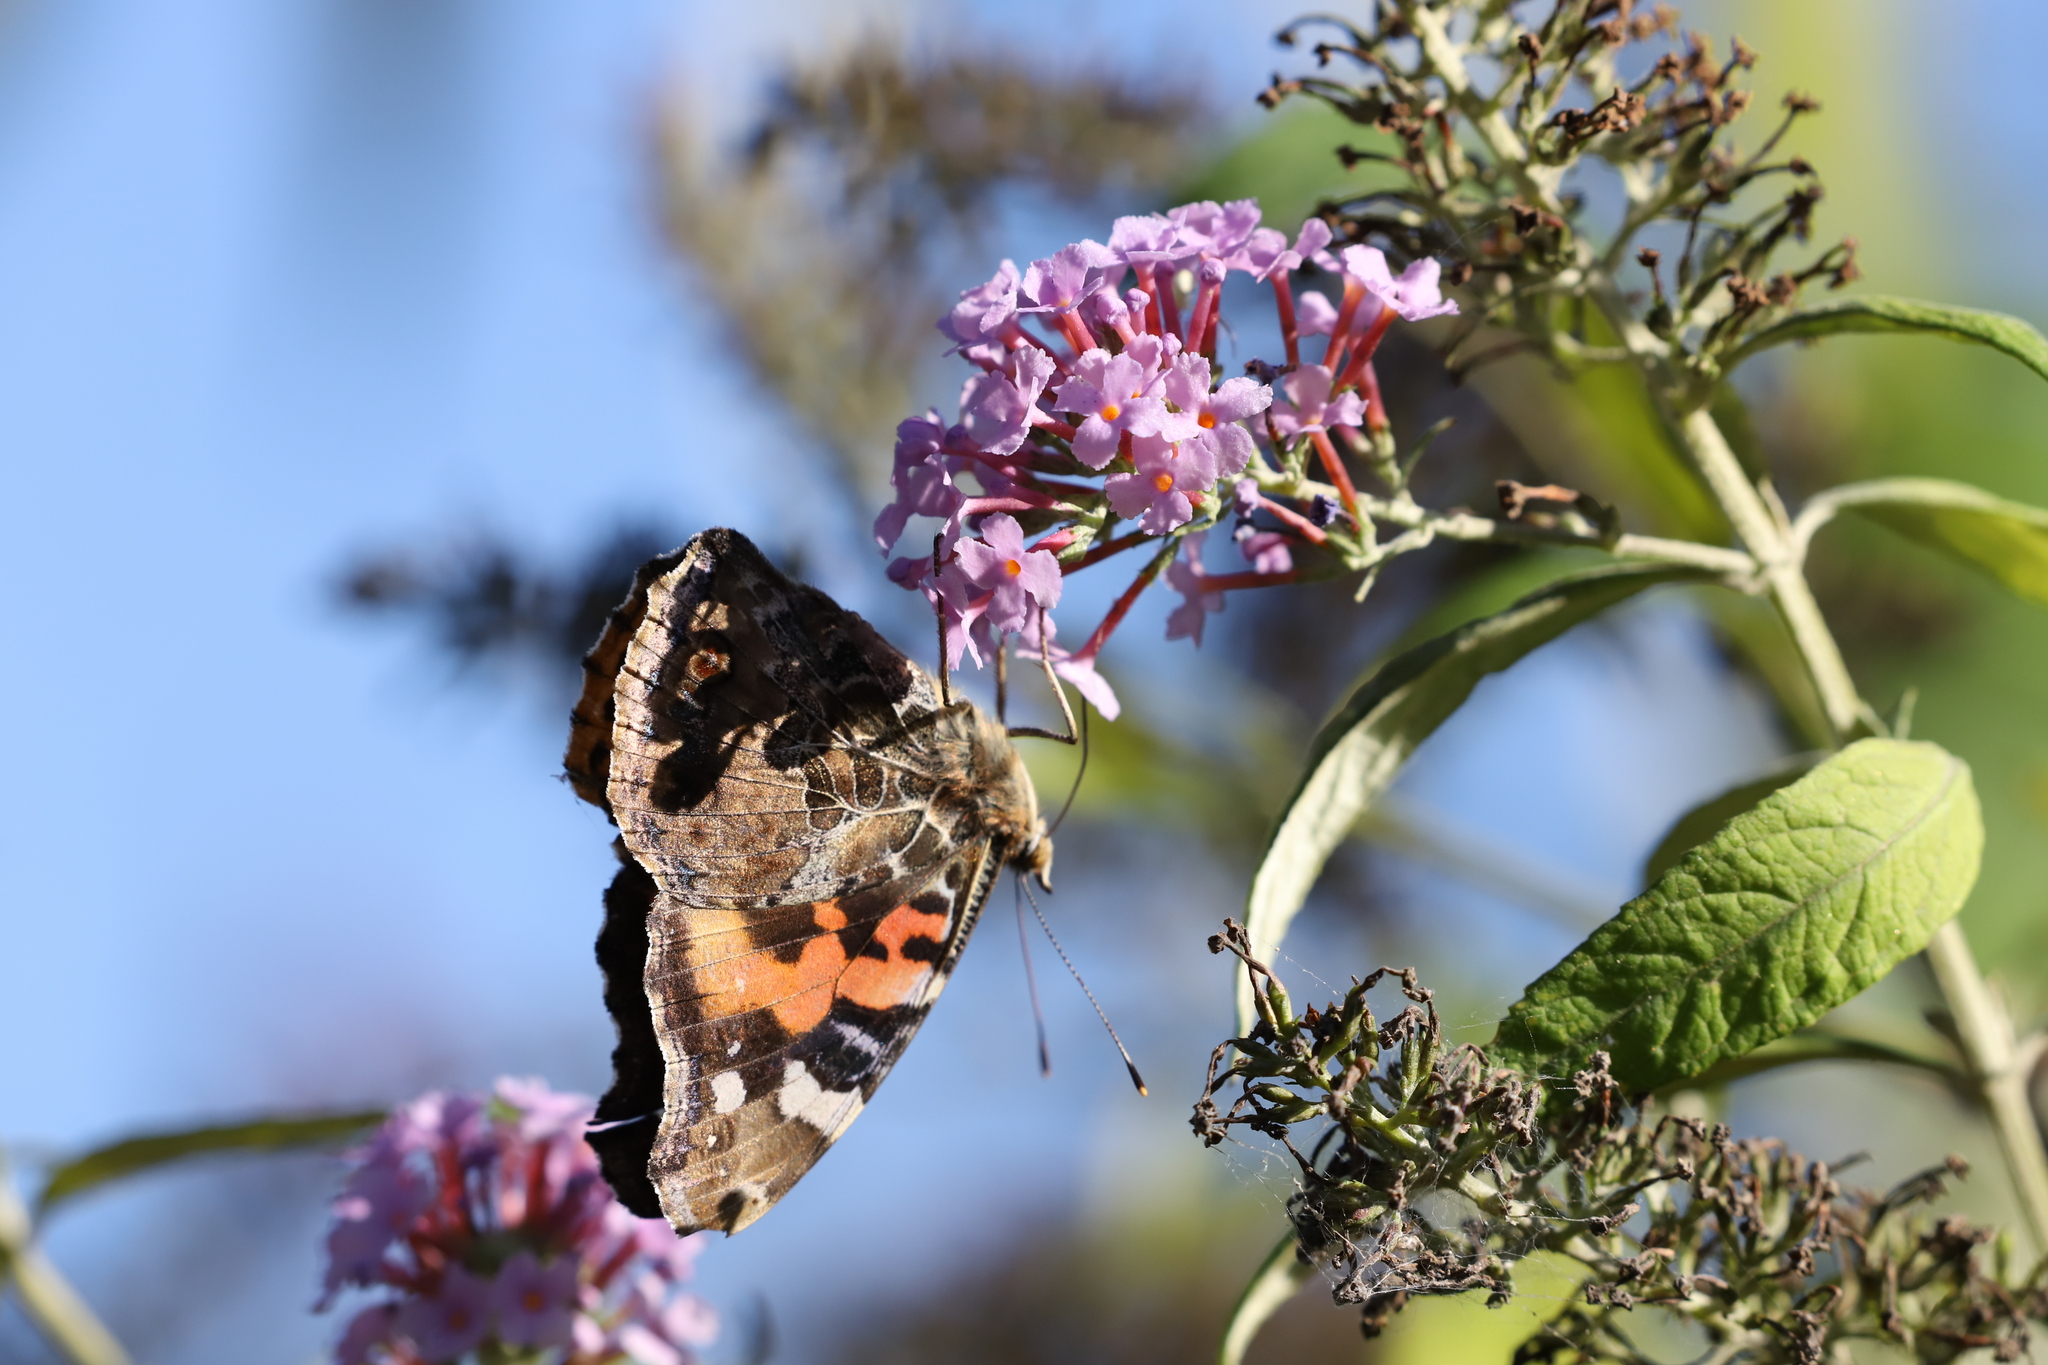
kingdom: Animalia
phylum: Arthropoda
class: Insecta
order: Lepidoptera
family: Nymphalidae
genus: Vanessa
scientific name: Vanessa indica
